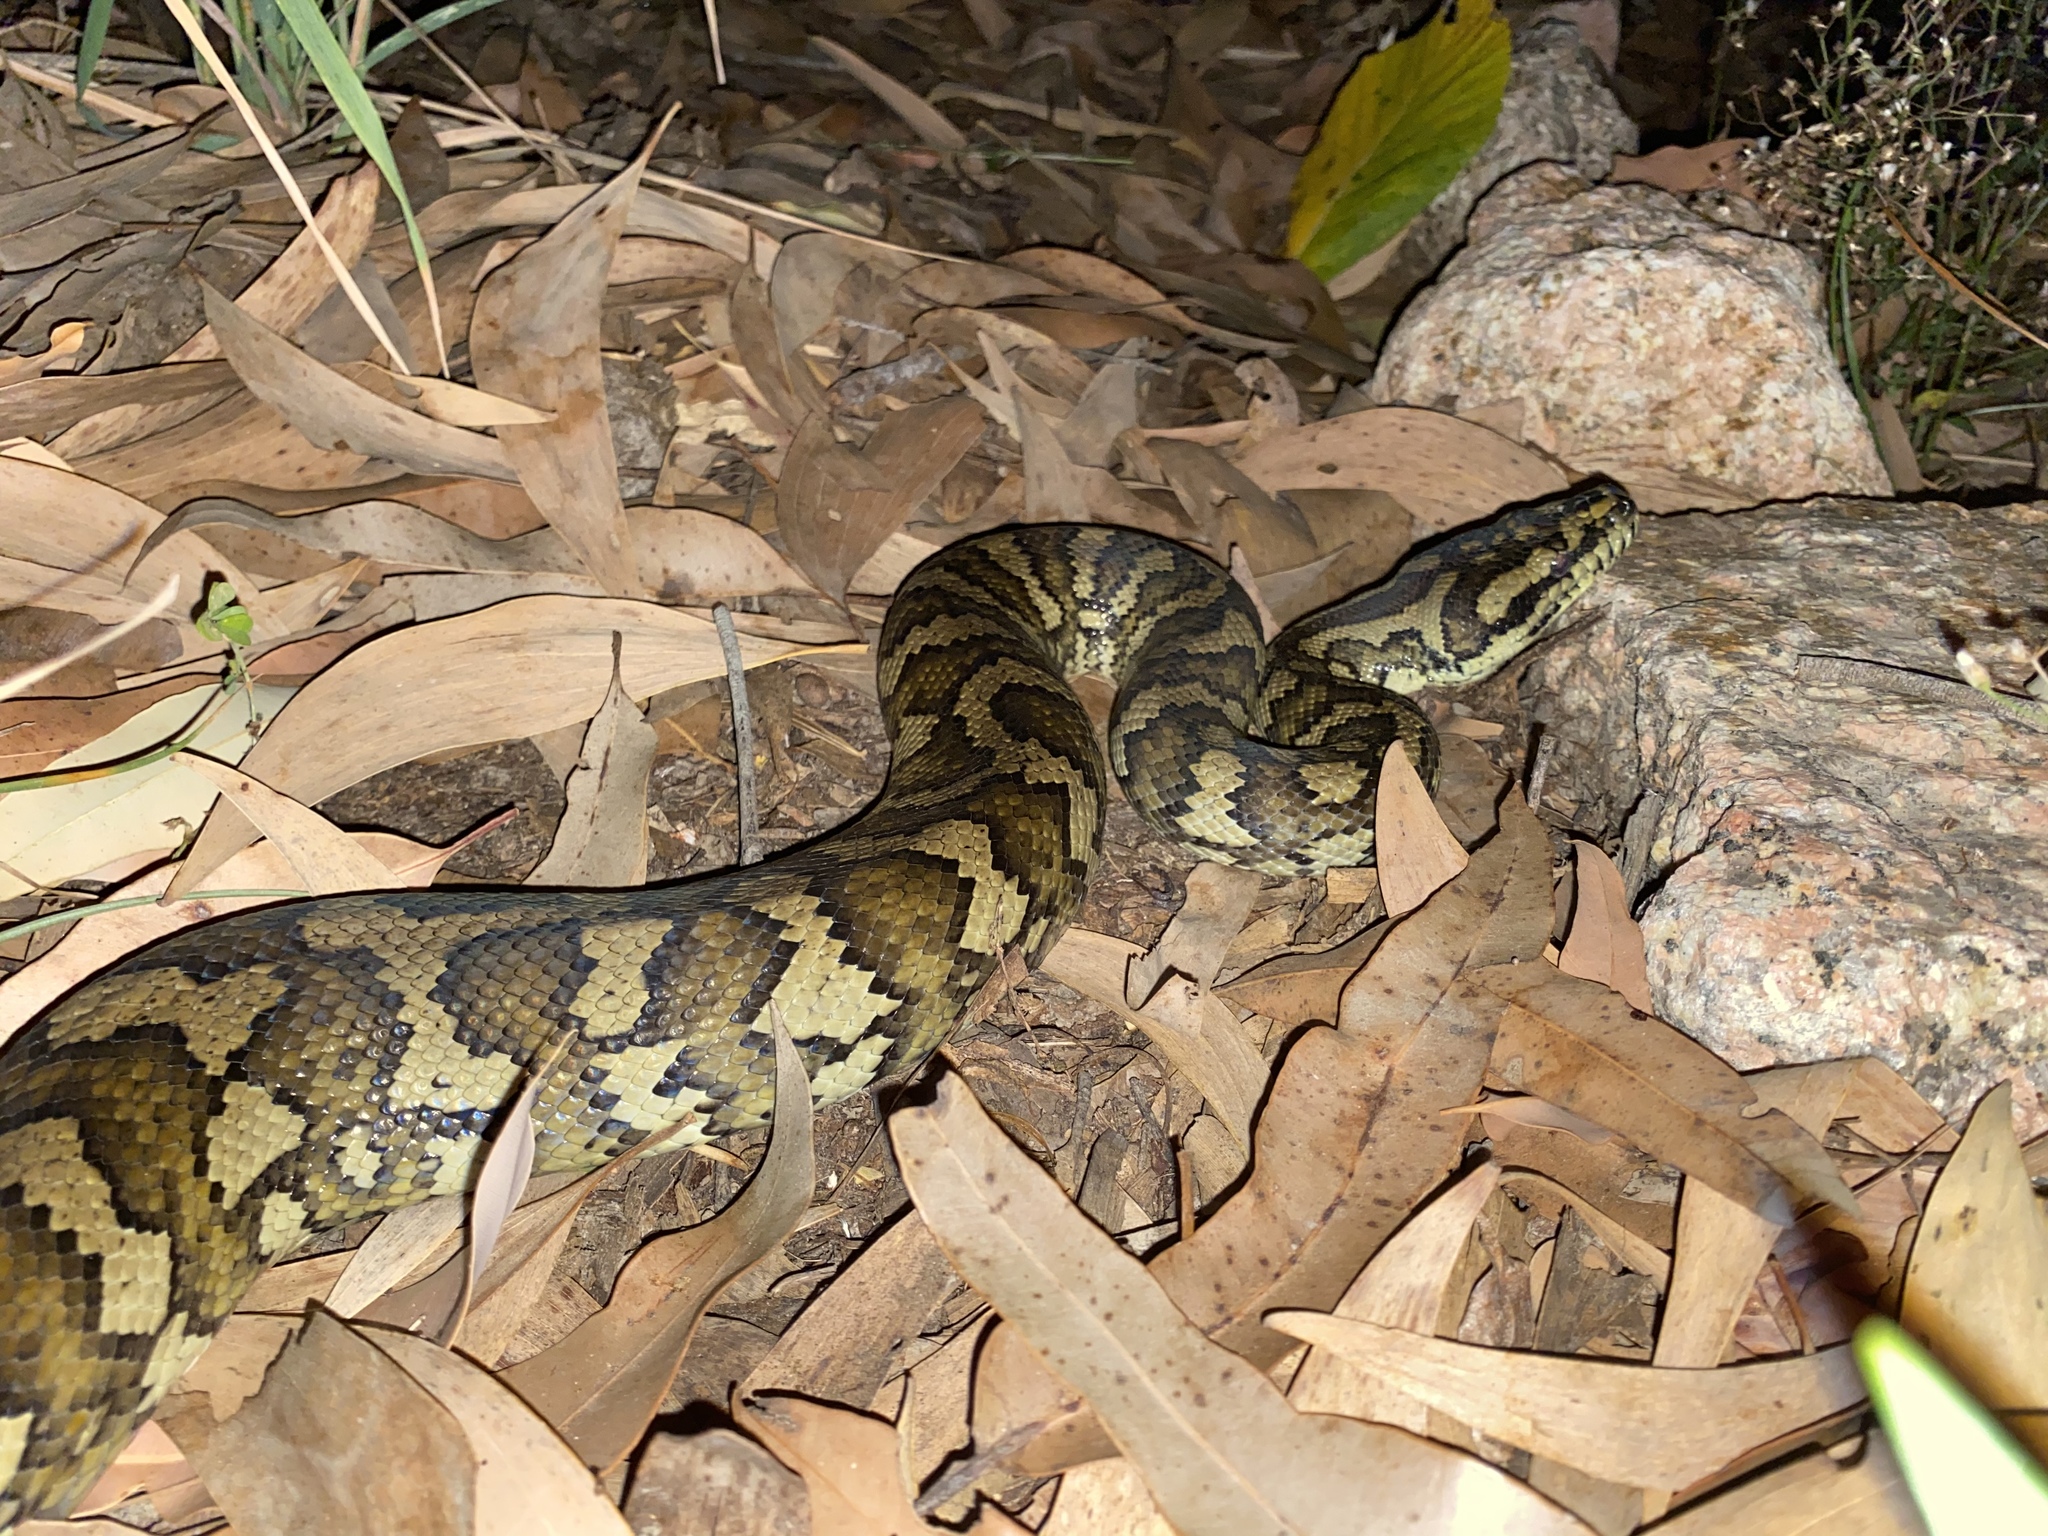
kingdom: Animalia
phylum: Chordata
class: Squamata
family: Pythonidae
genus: Morelia
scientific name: Morelia spilota
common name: Carpet python
